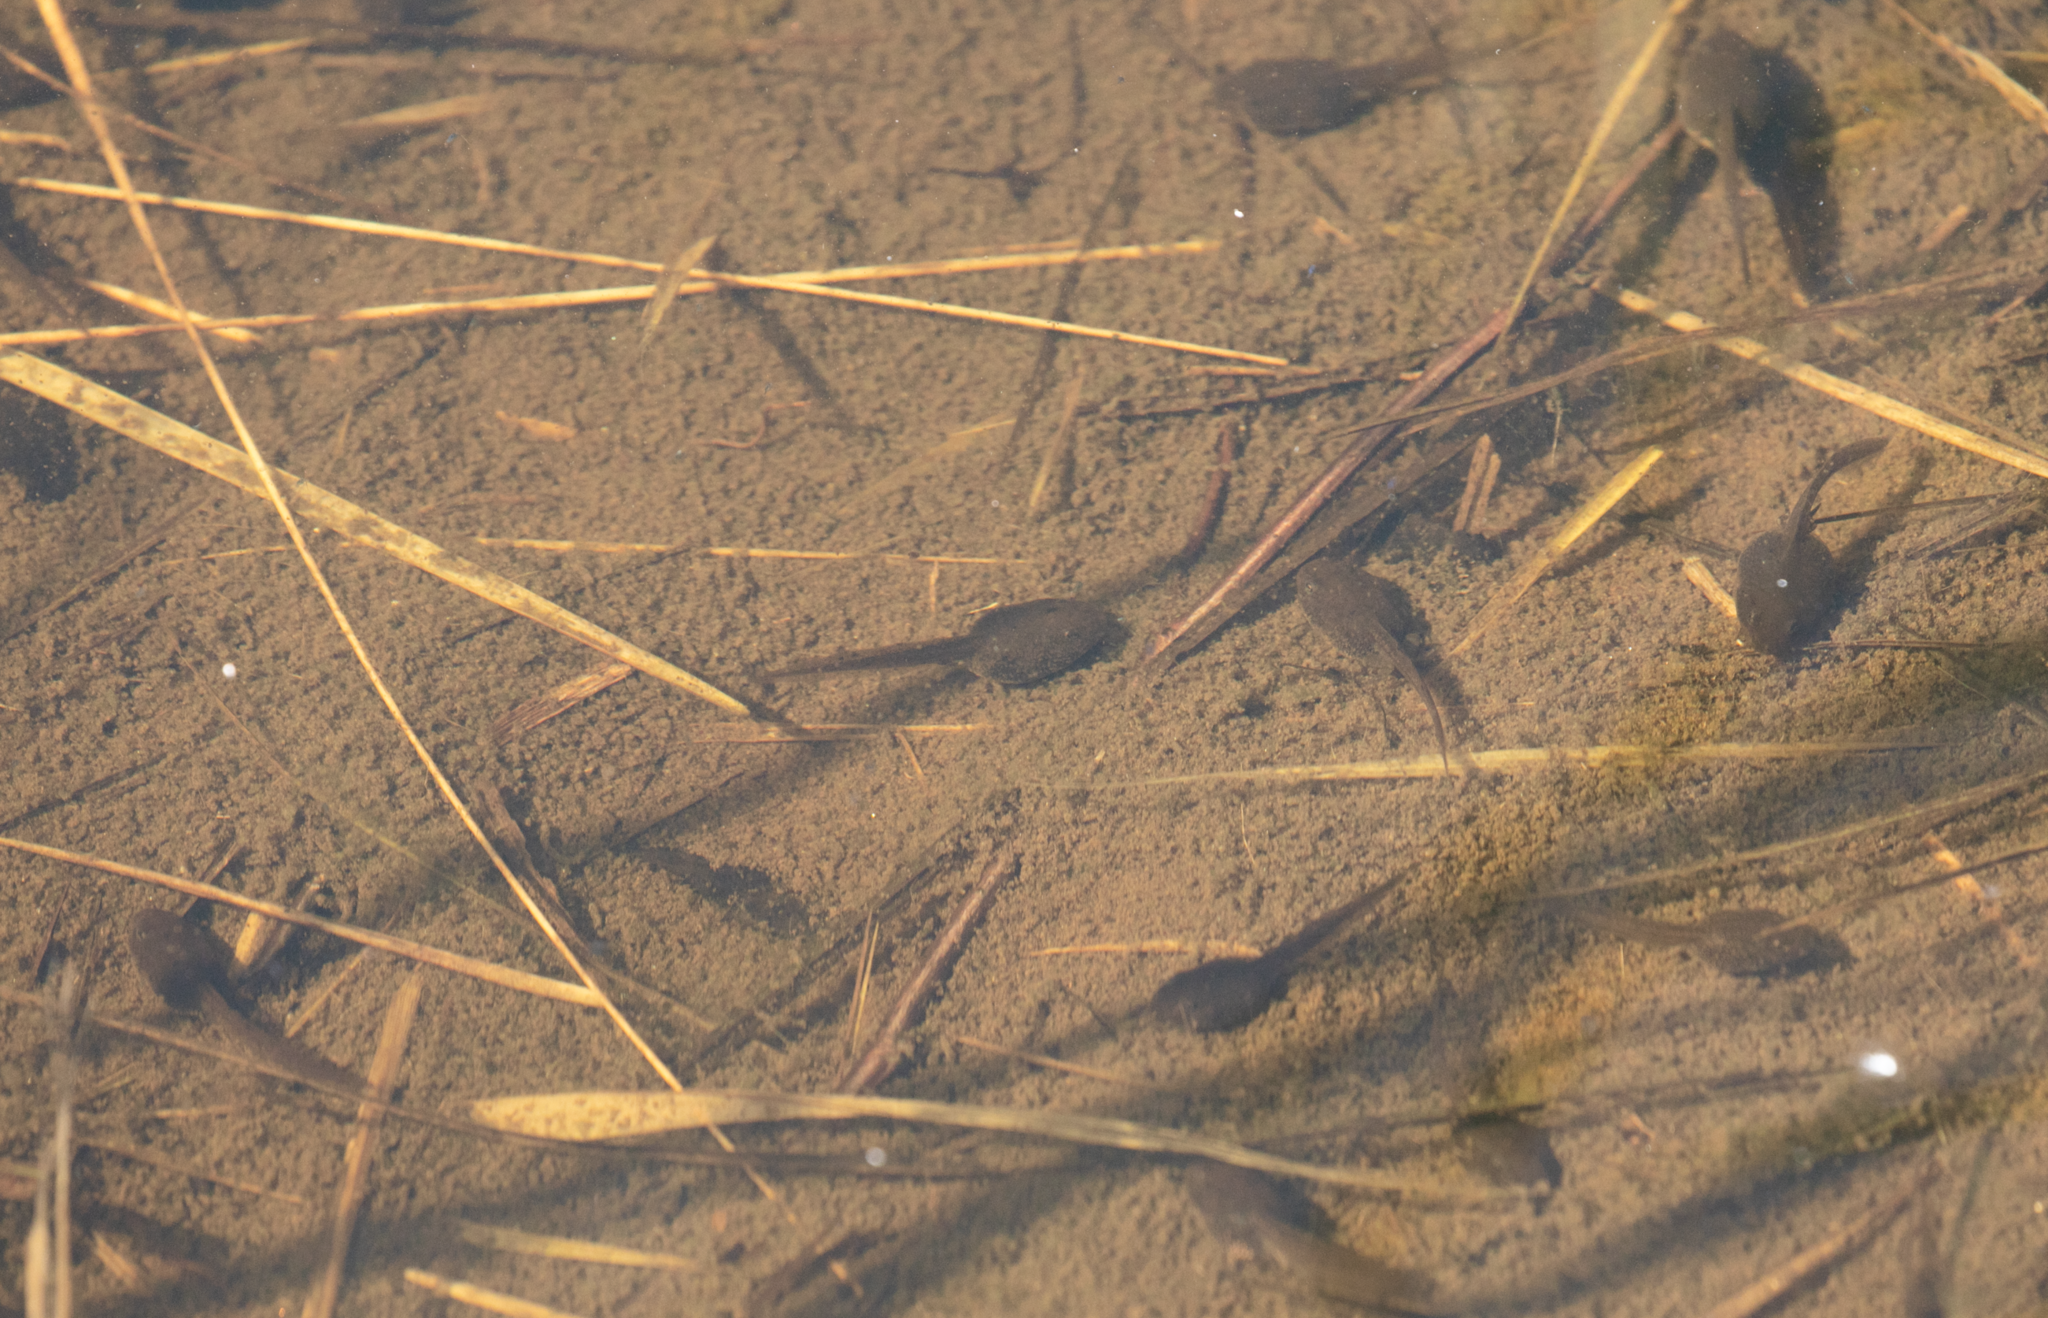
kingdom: Animalia
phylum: Chordata
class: Amphibia
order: Anura
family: Ranidae
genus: Rana
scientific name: Rana temporaria
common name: Common frog
